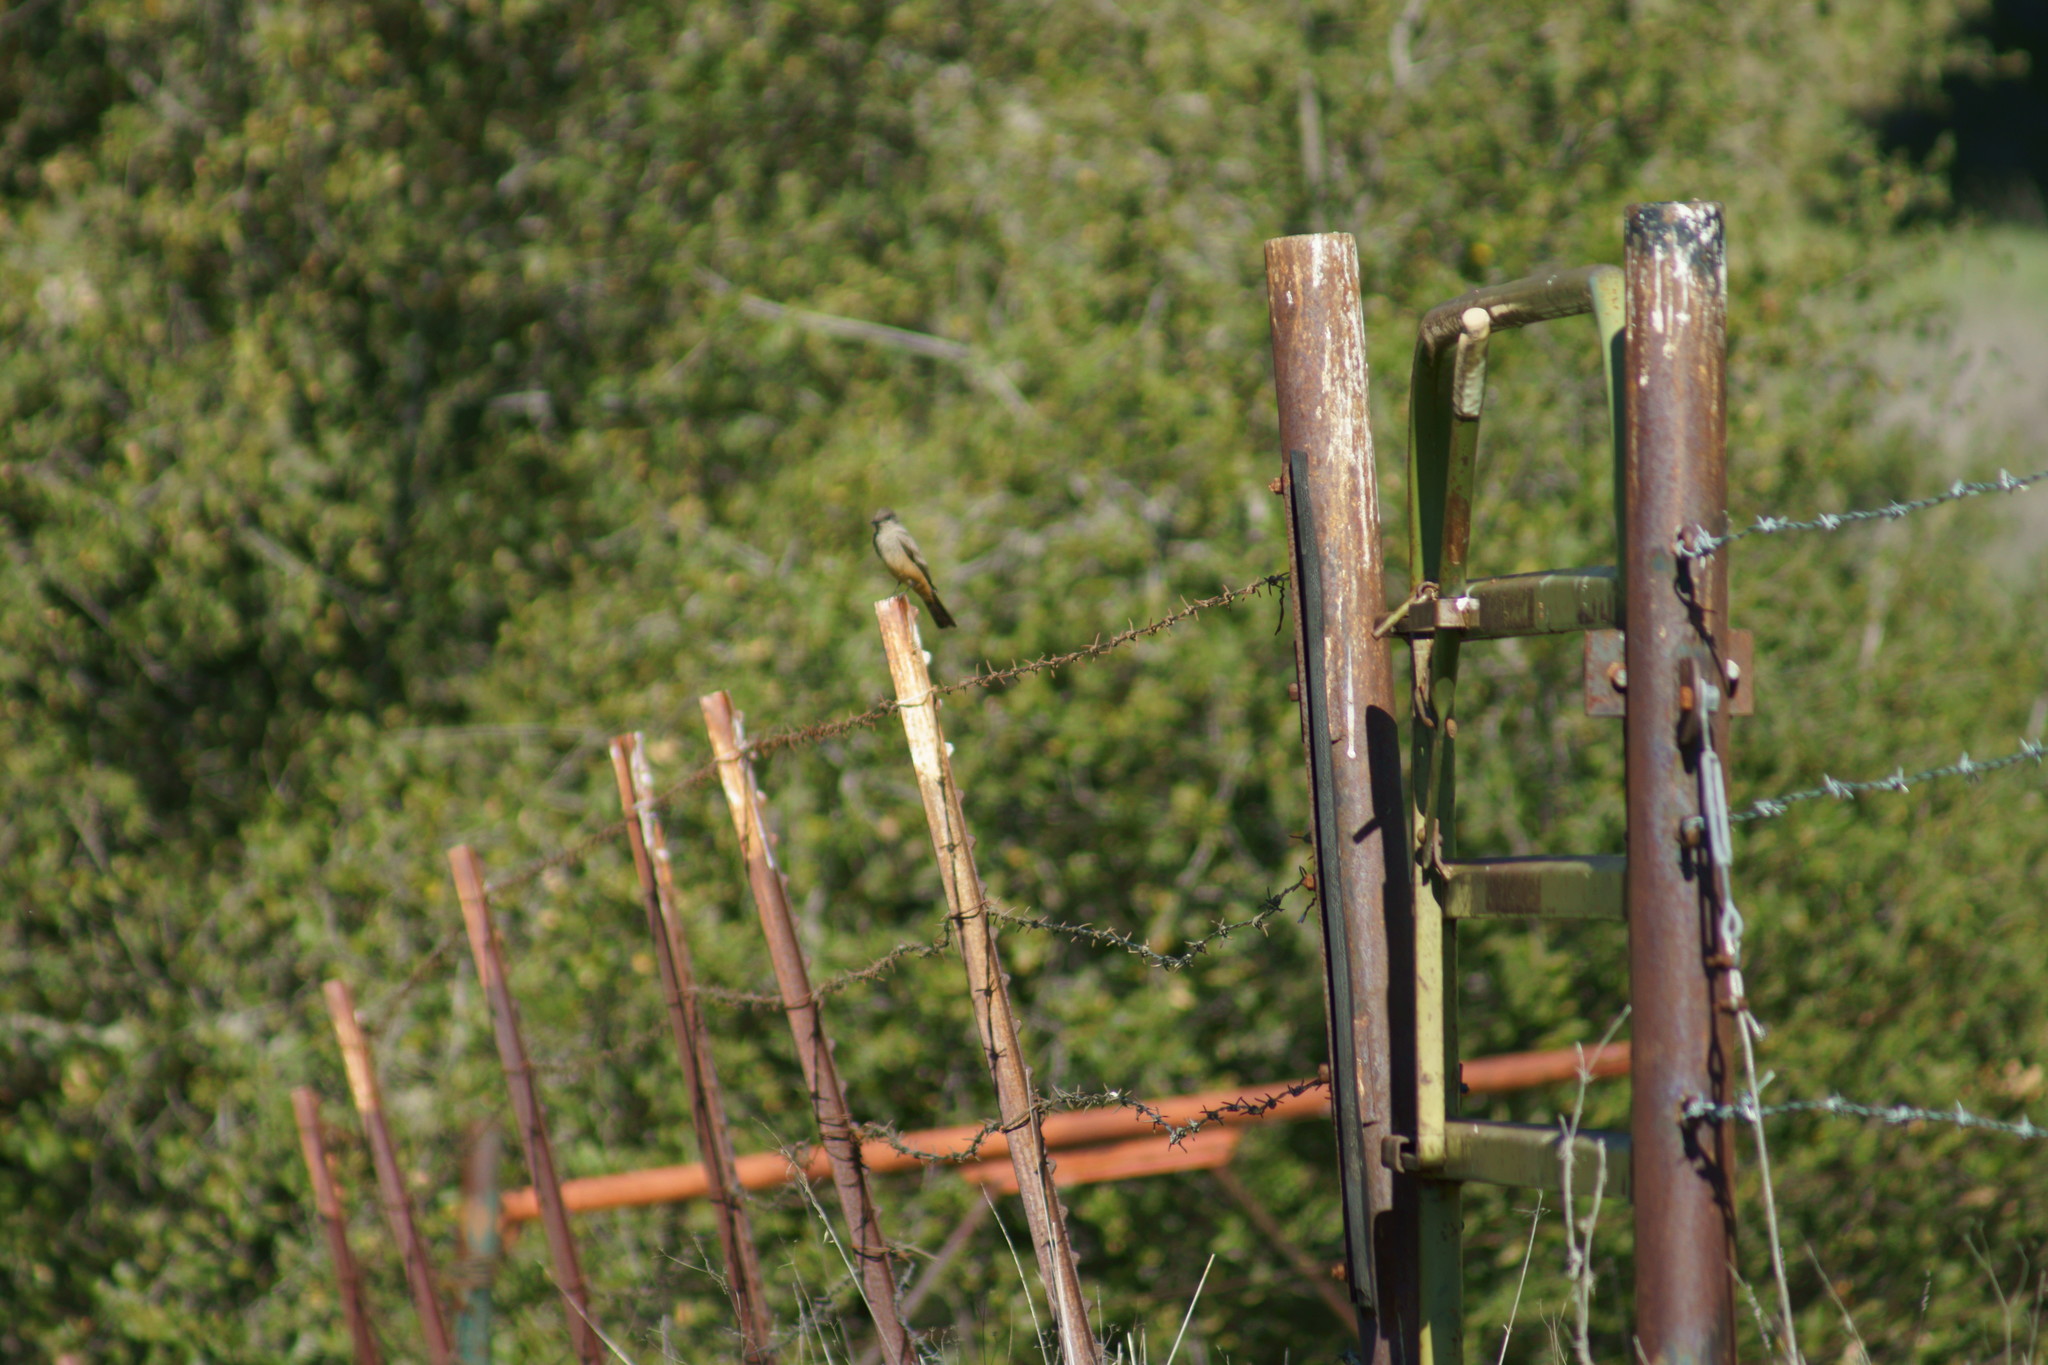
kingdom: Animalia
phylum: Chordata
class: Aves
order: Passeriformes
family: Tyrannidae
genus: Sayornis
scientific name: Sayornis saya
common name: Say's phoebe
